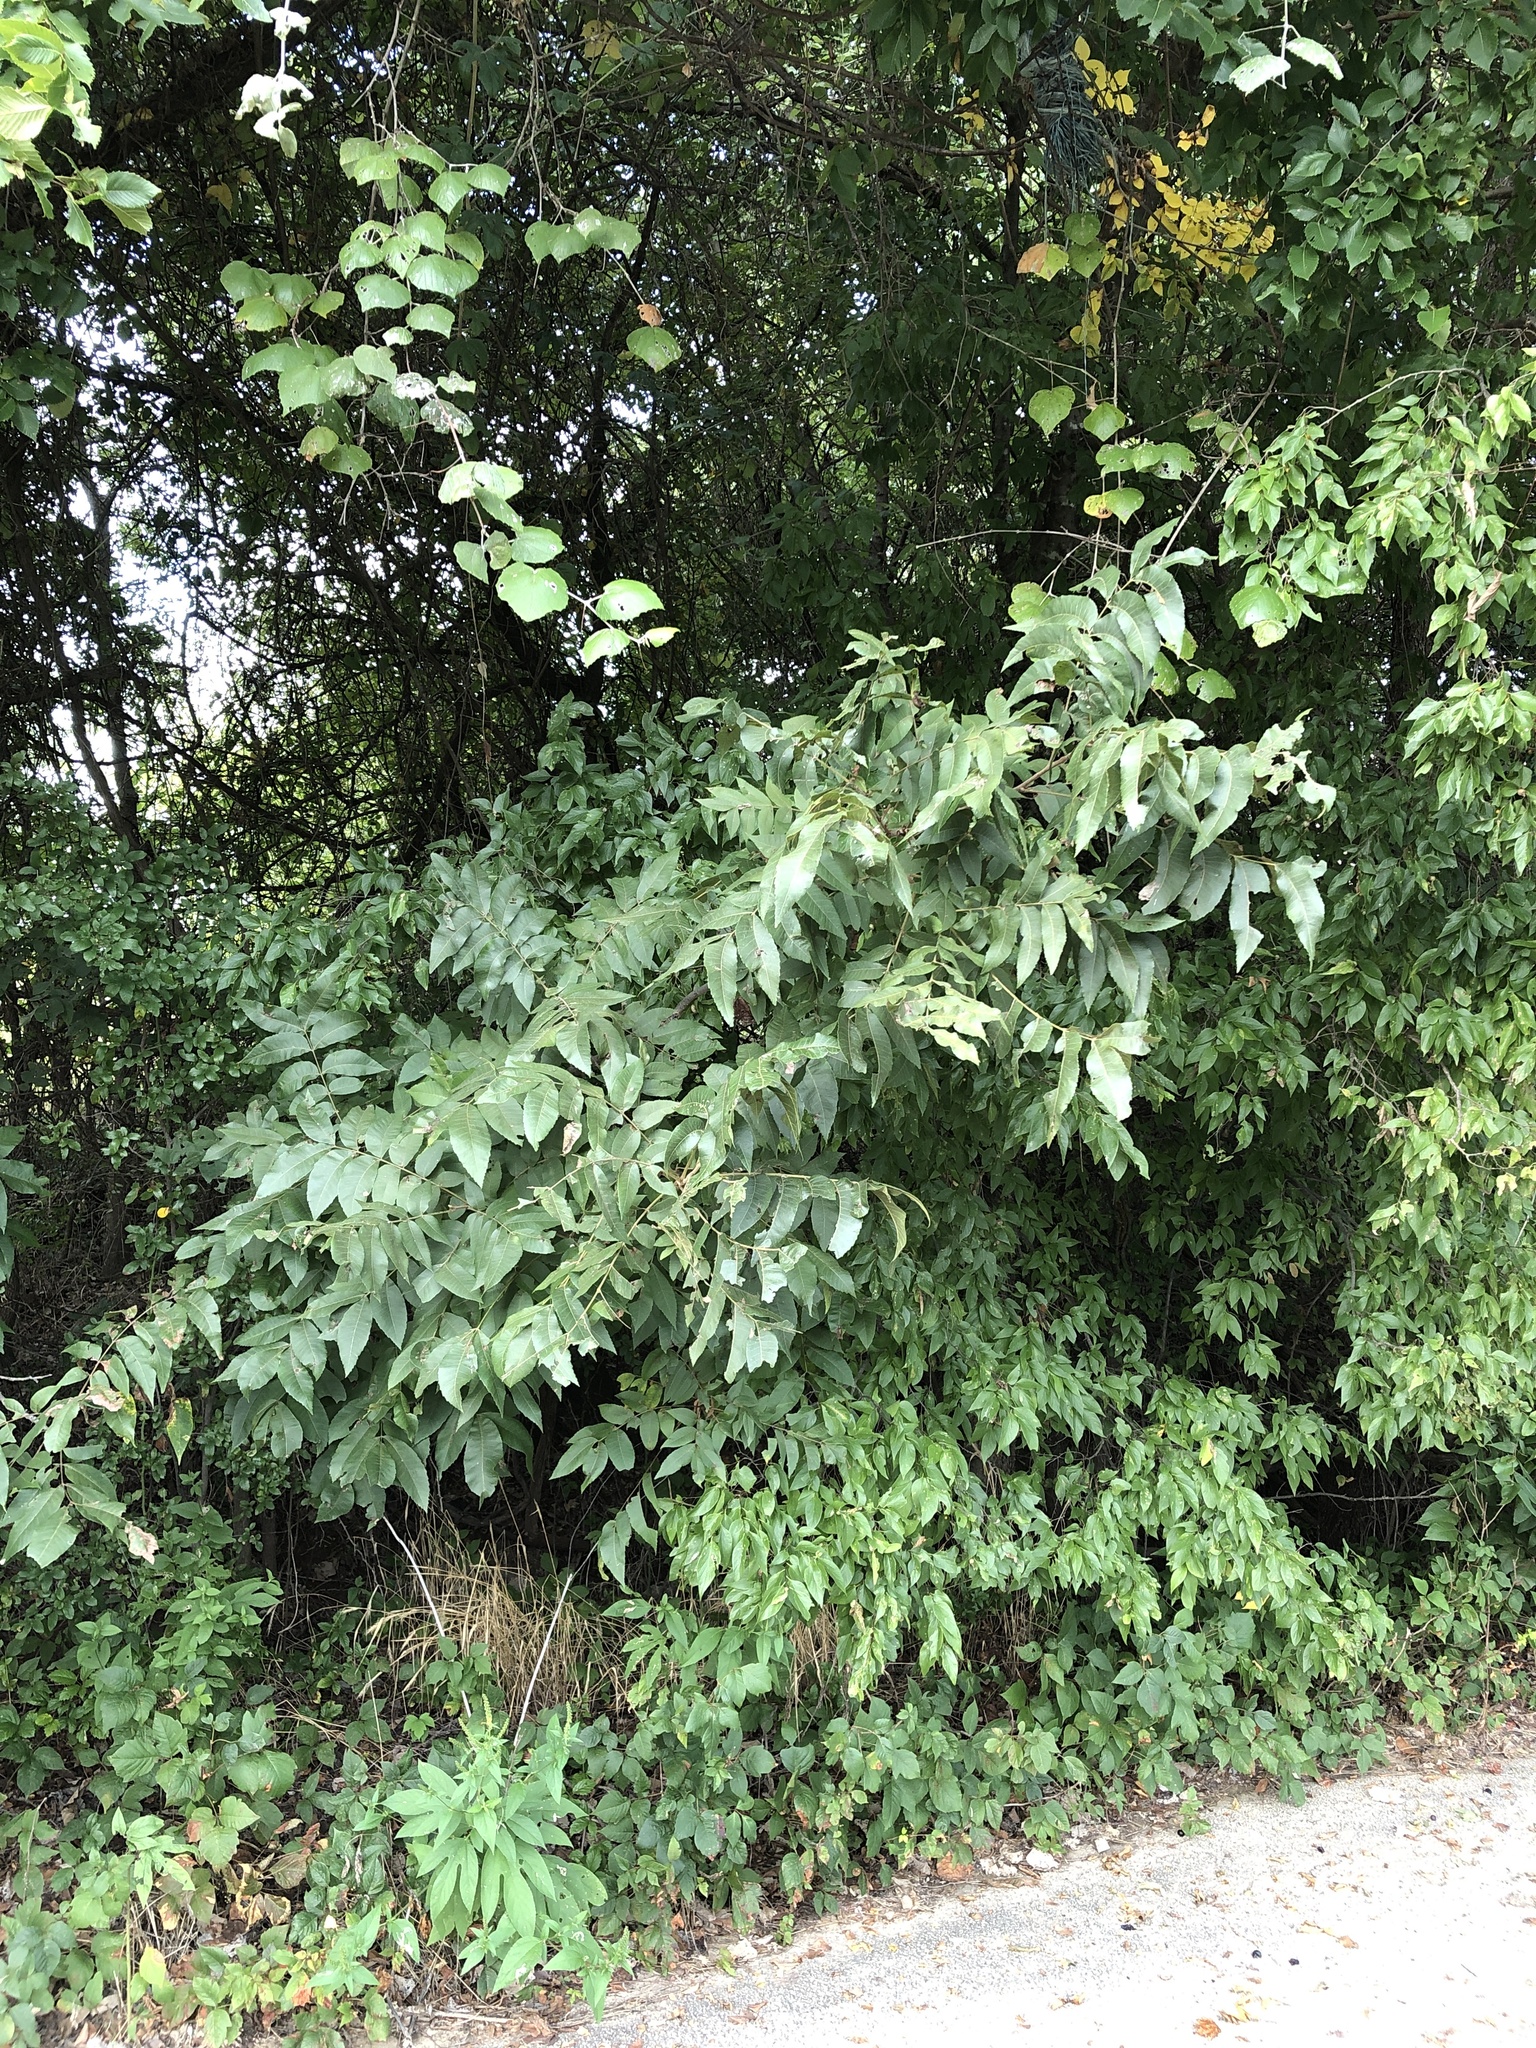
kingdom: Plantae
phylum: Tracheophyta
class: Magnoliopsida
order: Fagales
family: Juglandaceae
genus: Carya
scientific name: Carya illinoinensis
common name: Pecan
